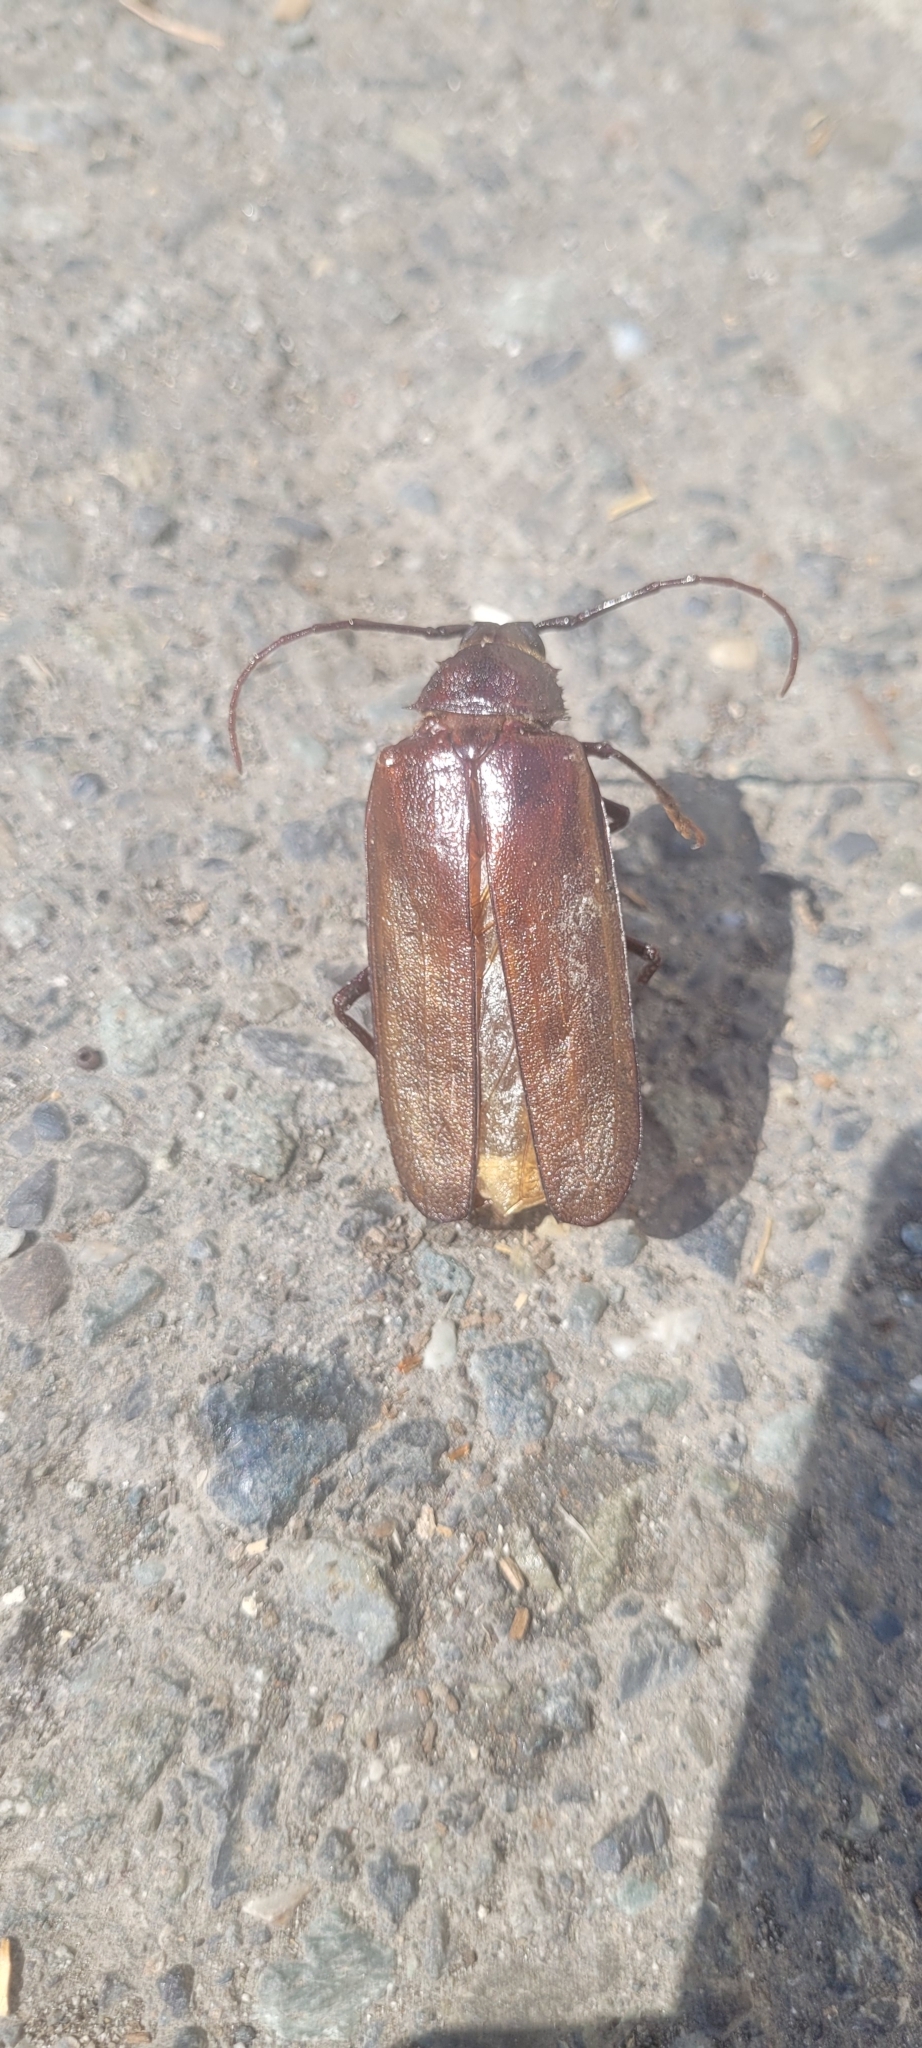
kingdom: Animalia
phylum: Arthropoda
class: Insecta
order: Coleoptera
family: Cerambycidae
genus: Trichocnemis
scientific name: Trichocnemis spiculatus
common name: Long-horned beetle
